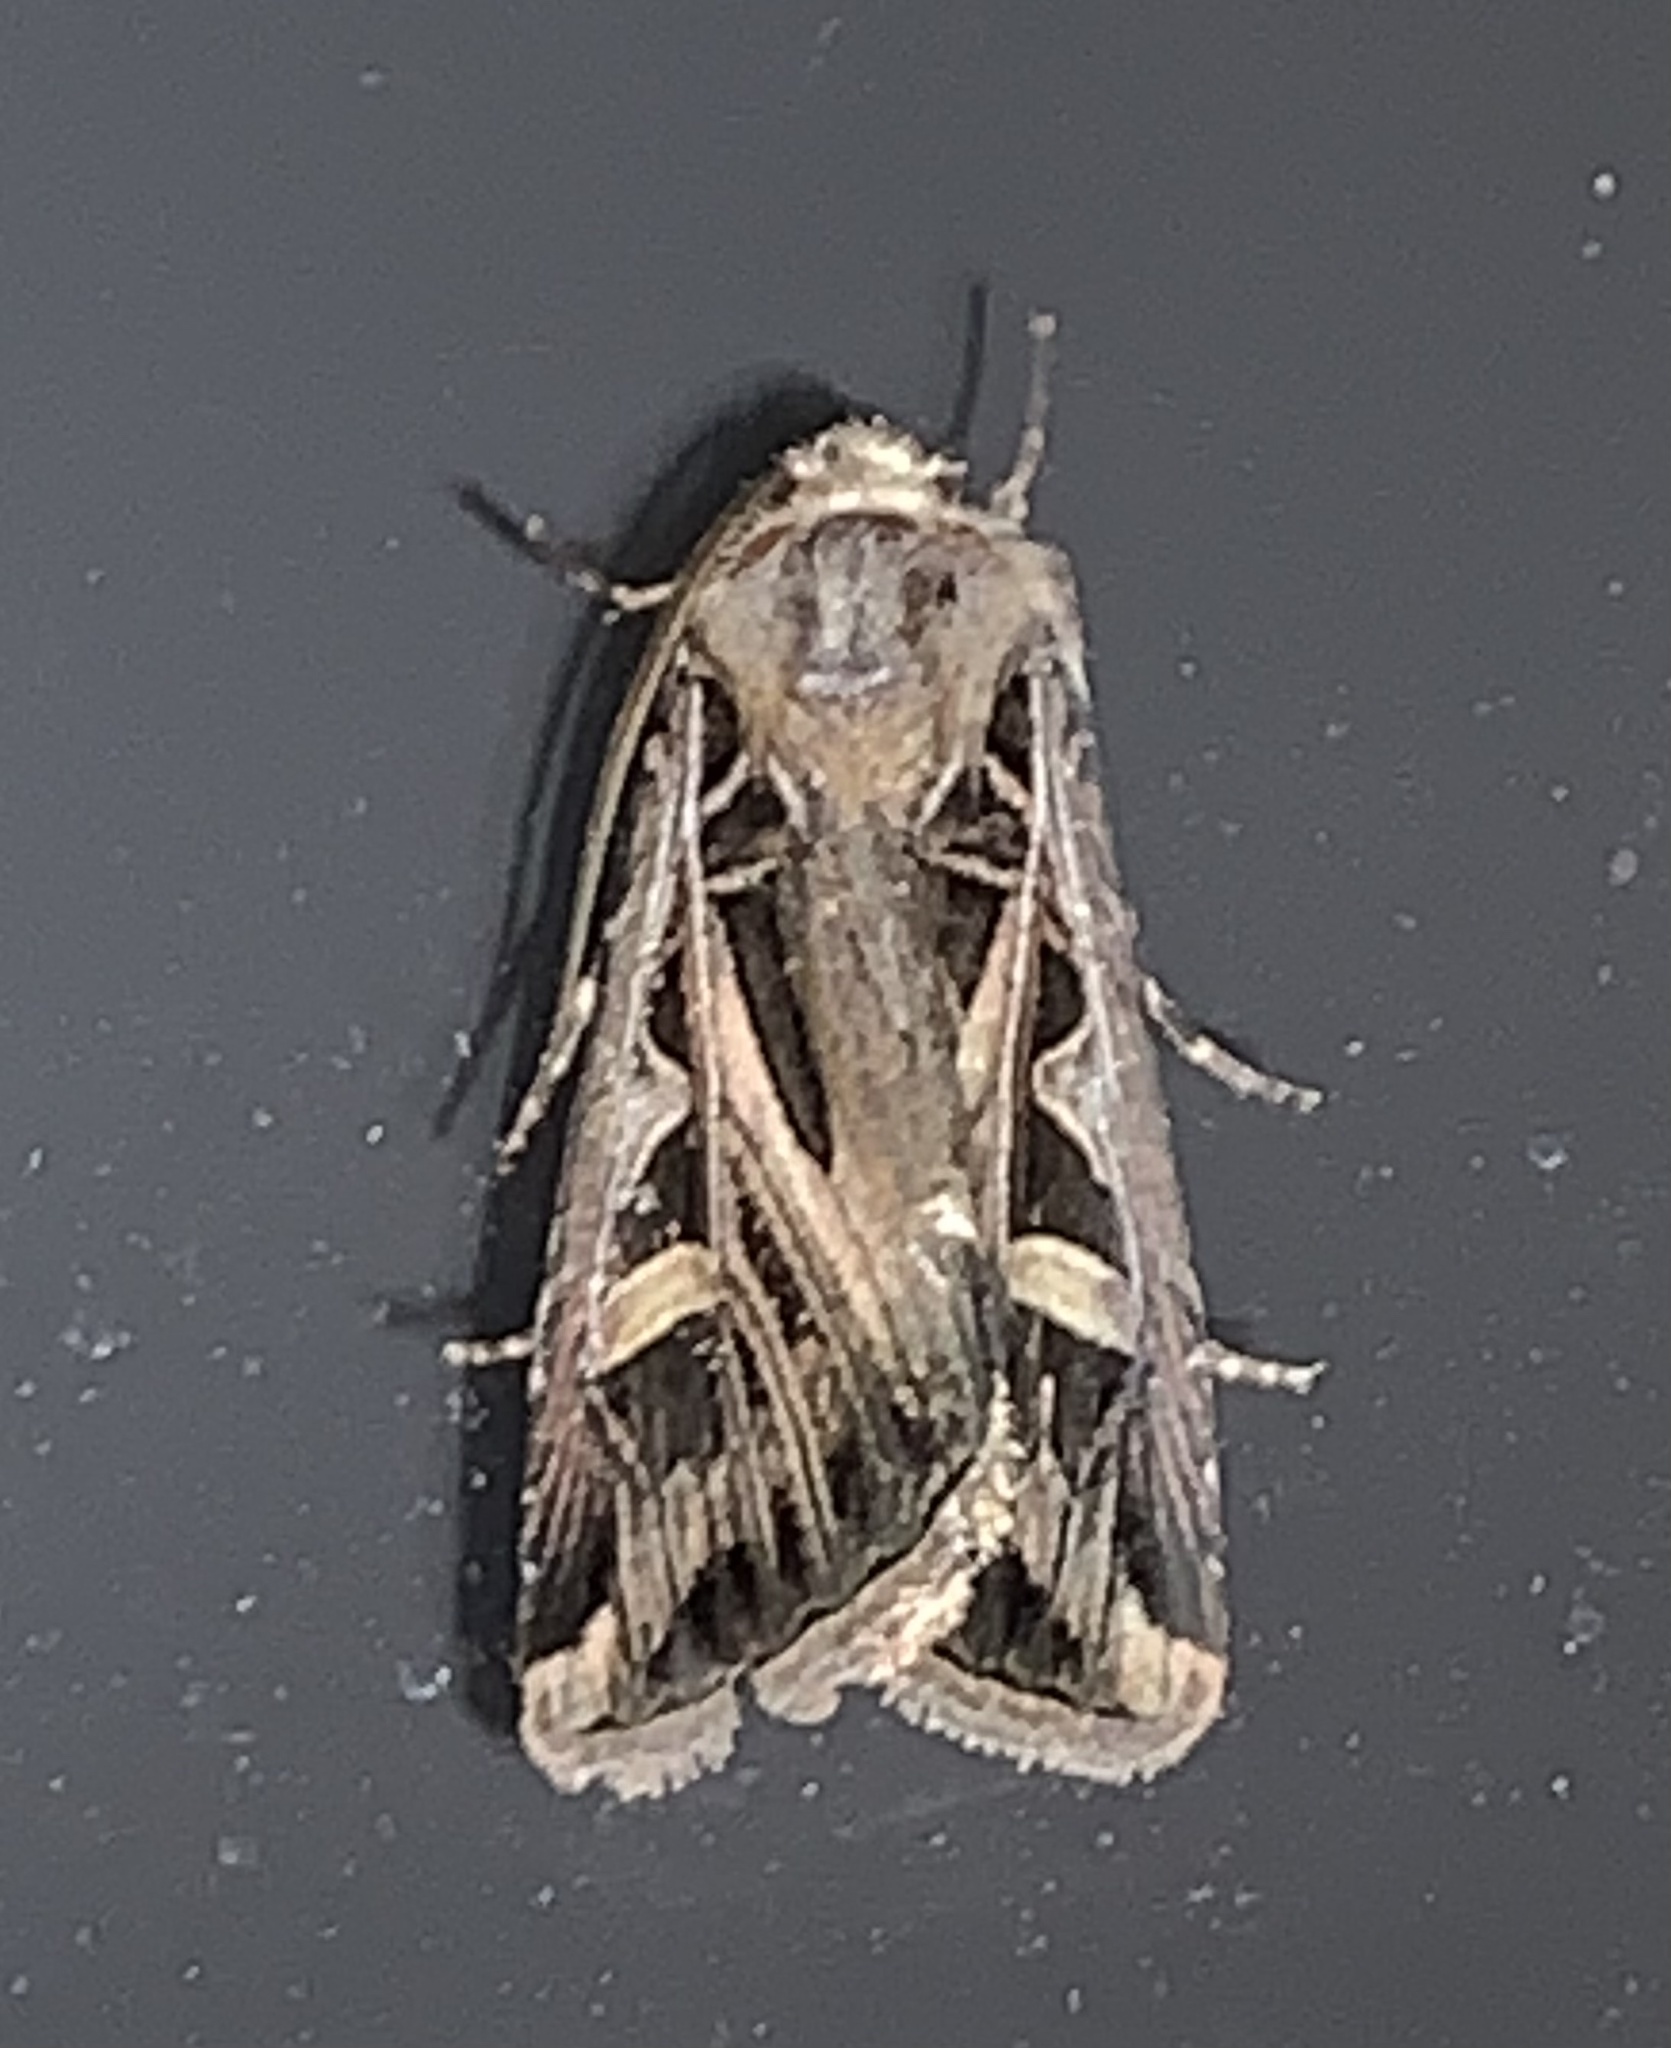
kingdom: Animalia
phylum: Arthropoda
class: Insecta
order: Lepidoptera
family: Noctuidae
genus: Feltia
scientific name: Feltia jaculifera
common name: Dingy cutworm moth
